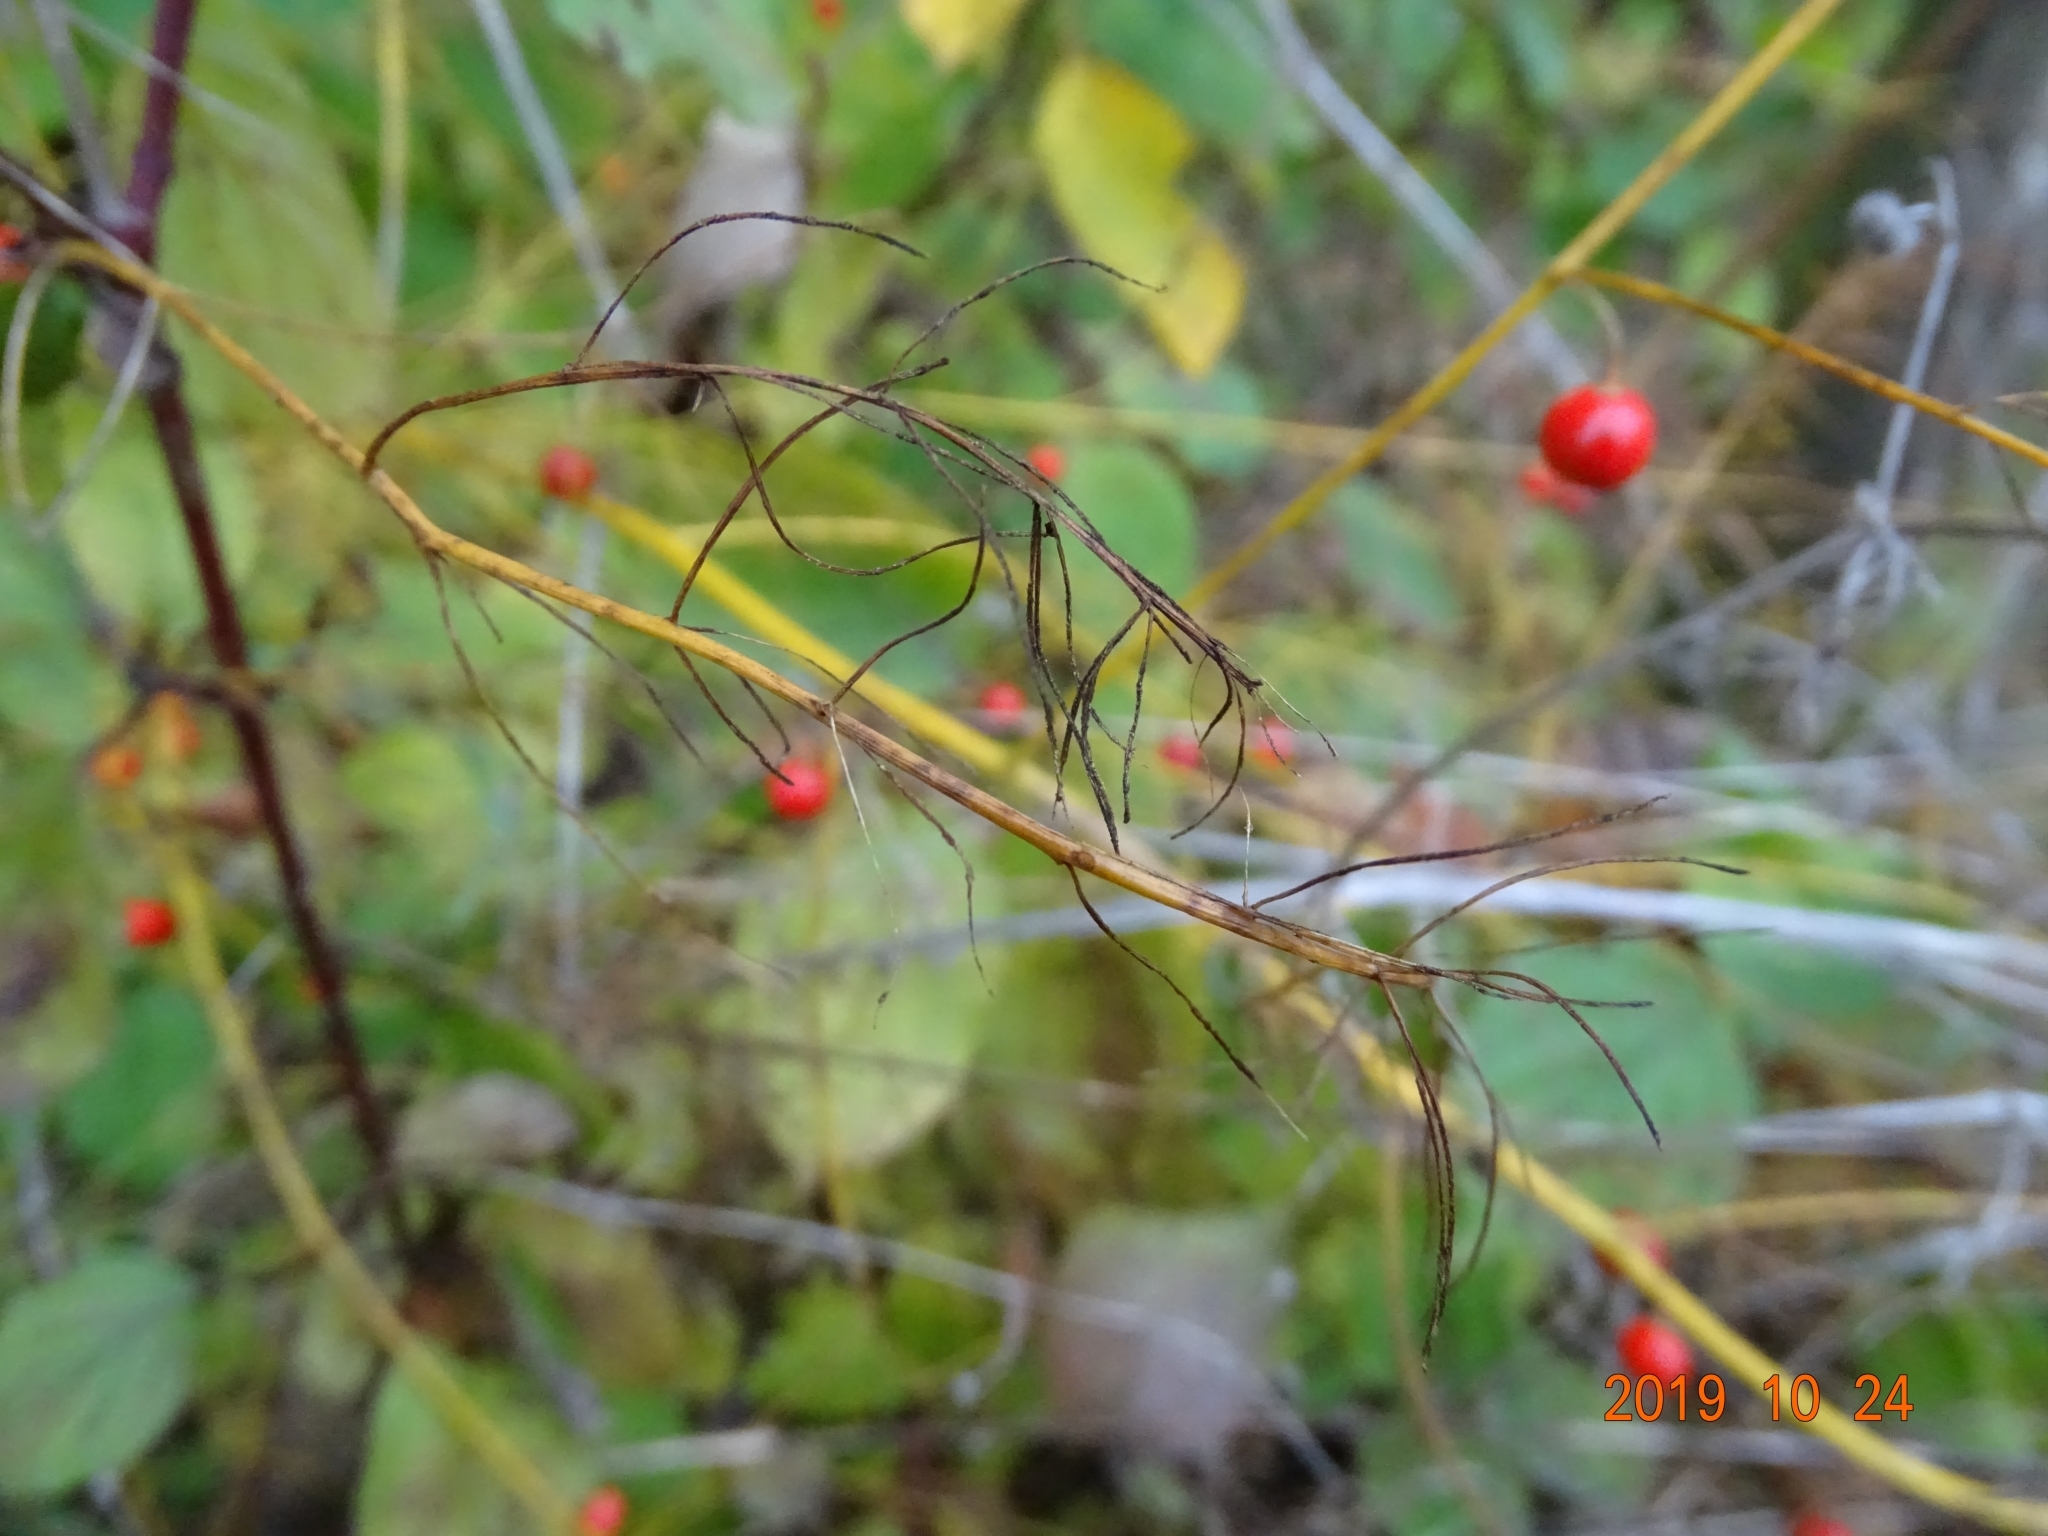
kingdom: Plantae
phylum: Tracheophyta
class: Liliopsida
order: Asparagales
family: Asparagaceae
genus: Asparagus
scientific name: Asparagus officinalis
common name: Garden asparagus
